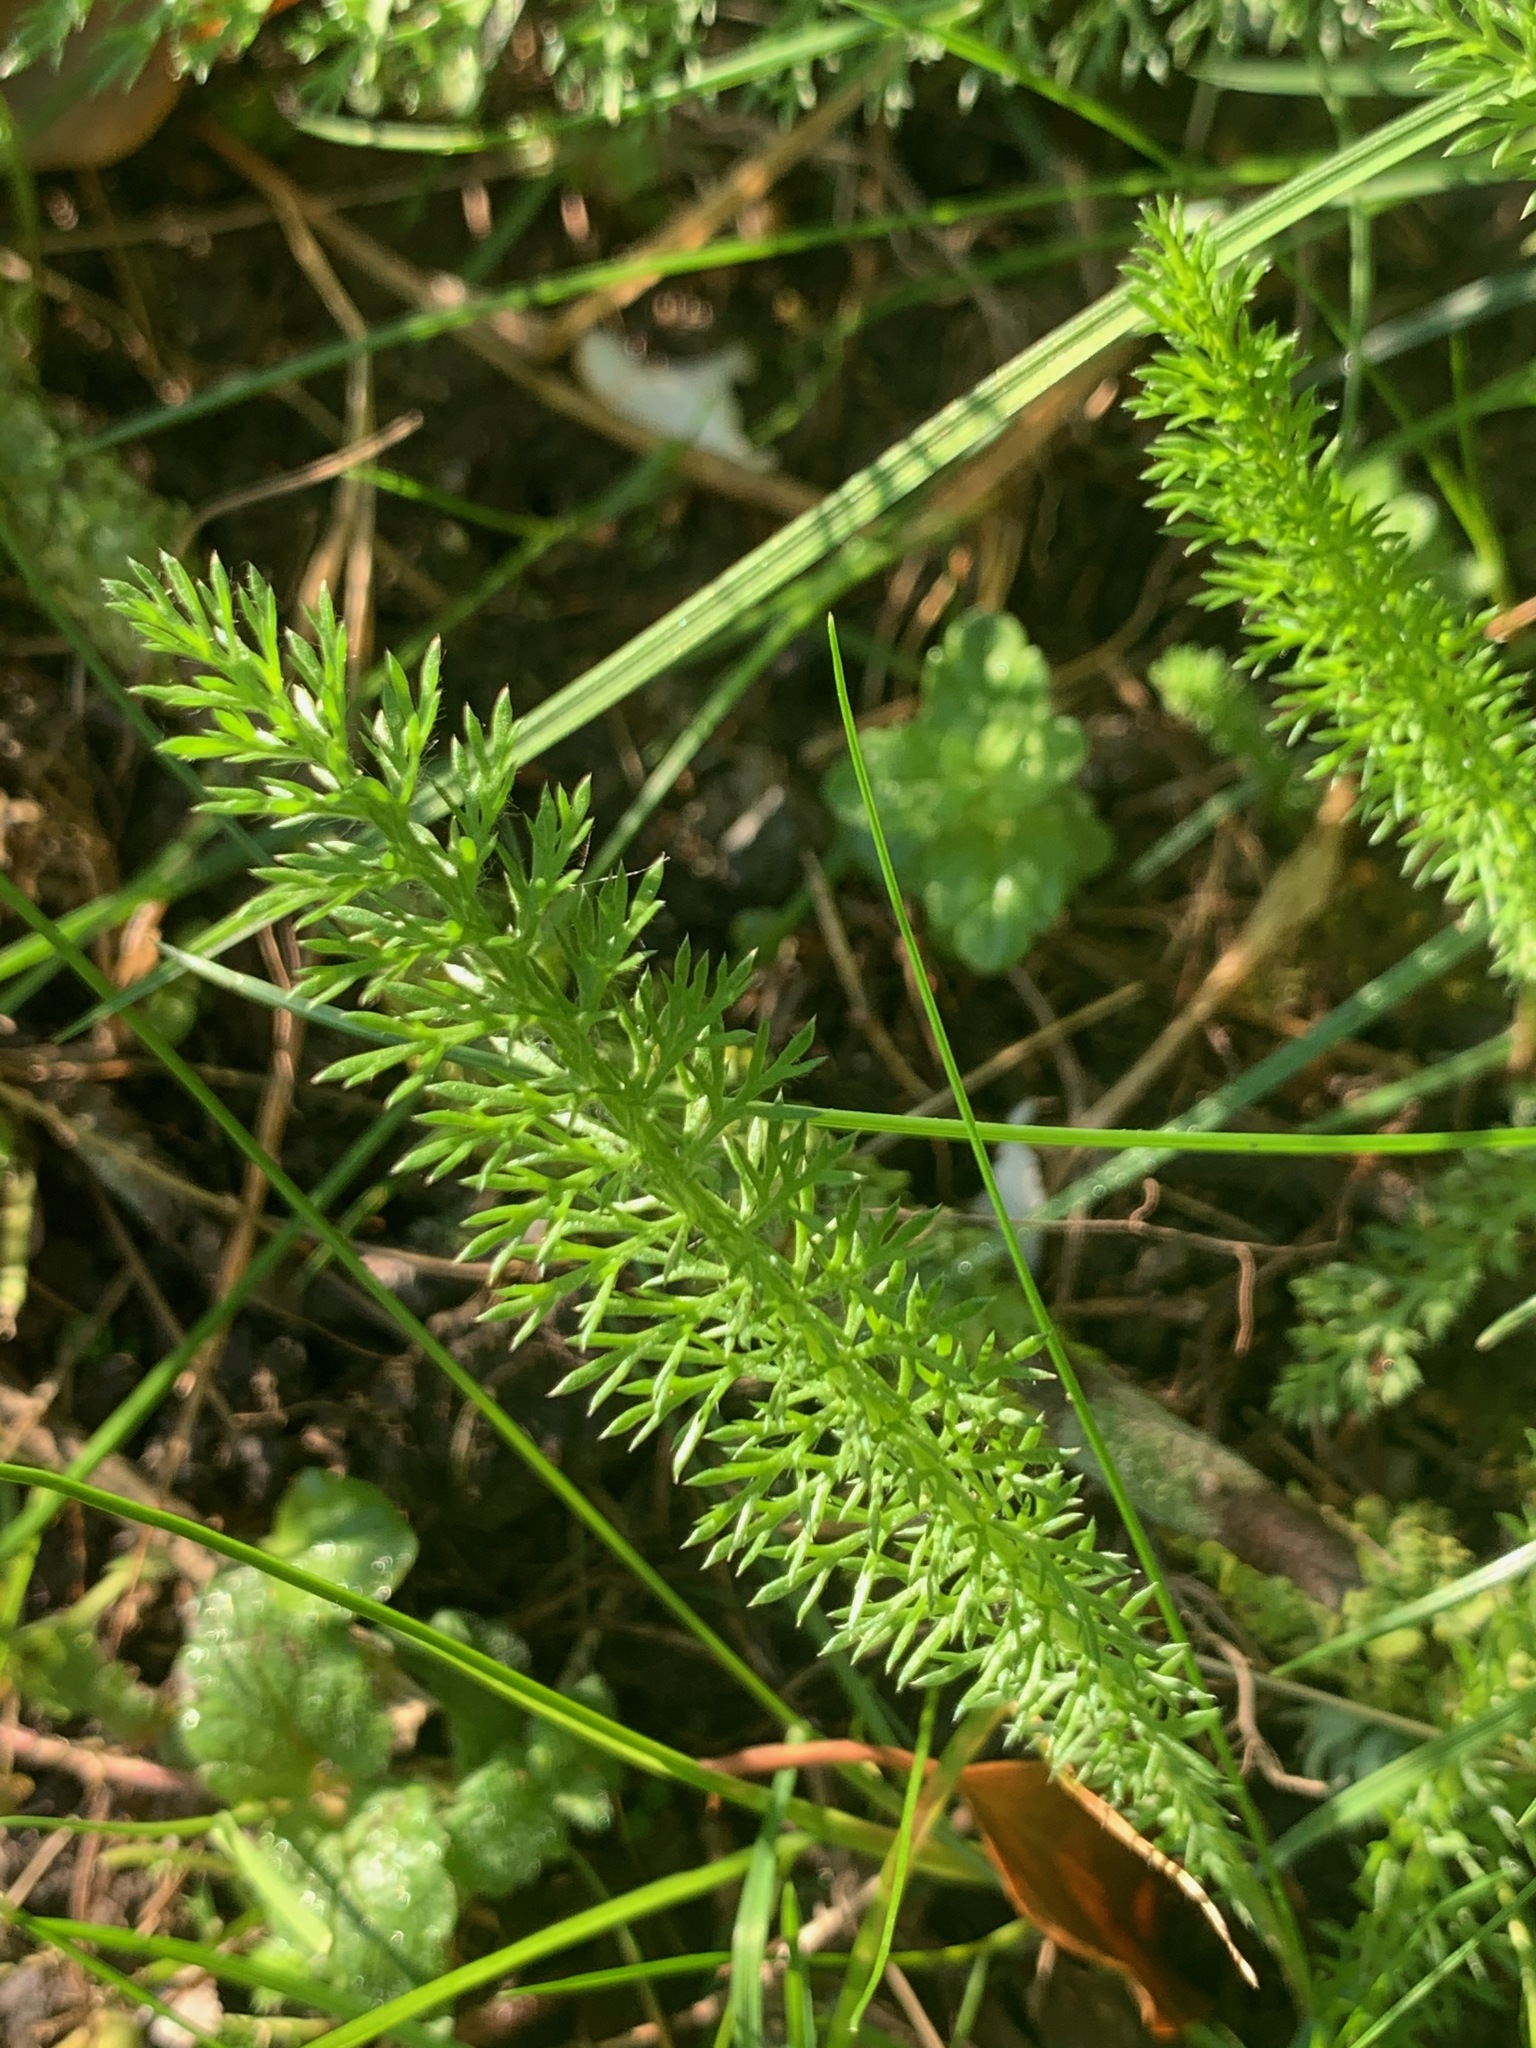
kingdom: Plantae
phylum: Tracheophyta
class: Magnoliopsida
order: Asterales
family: Asteraceae
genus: Achillea
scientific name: Achillea millefolium
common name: Yarrow
